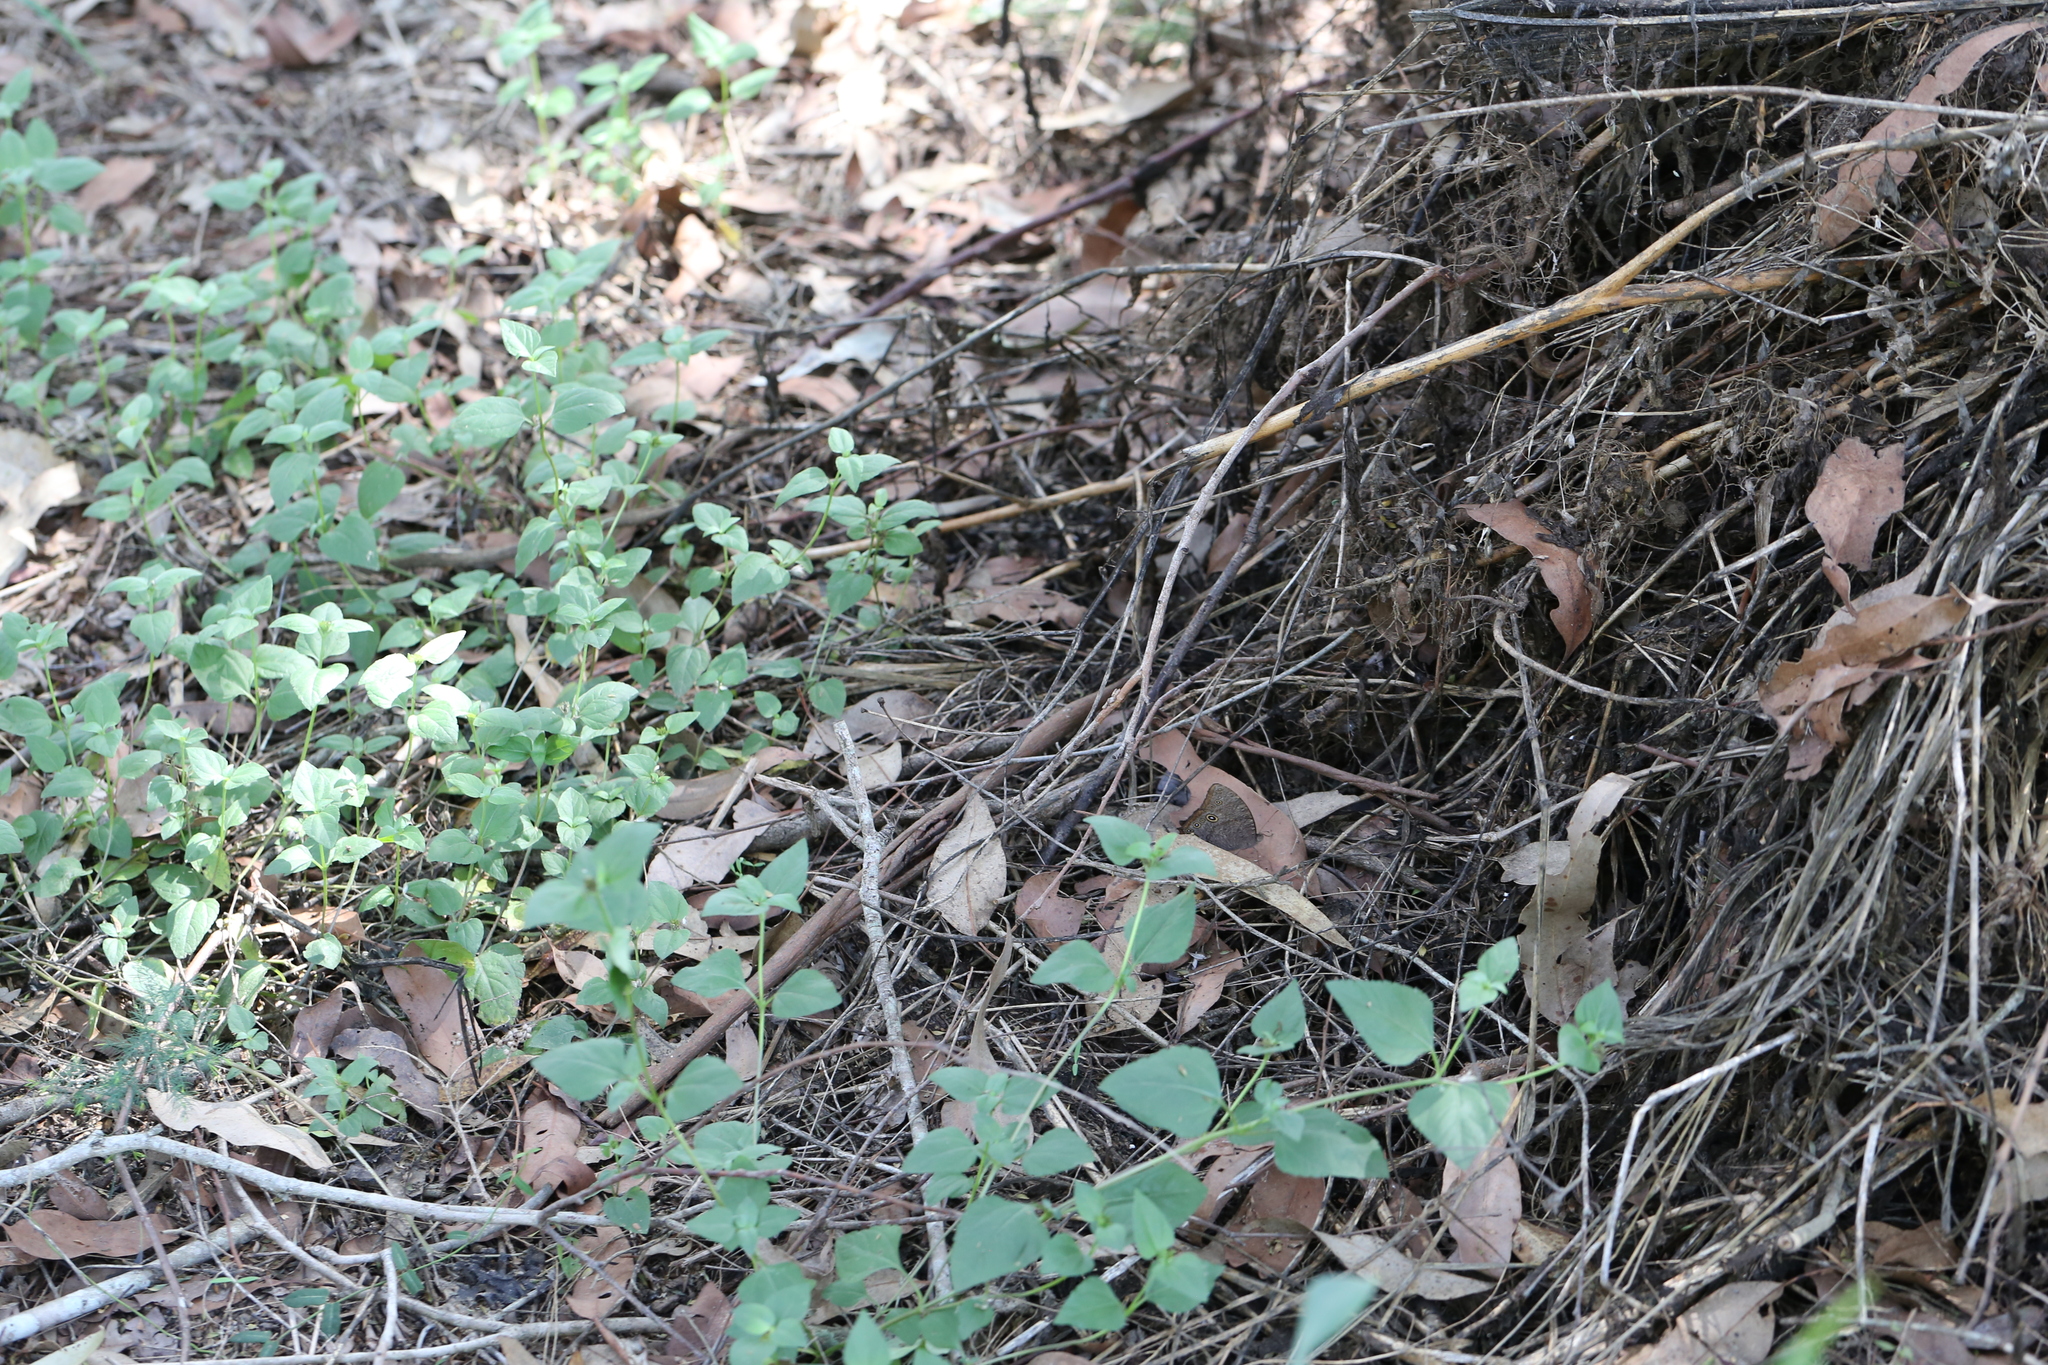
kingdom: Animalia
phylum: Arthropoda
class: Insecta
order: Lepidoptera
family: Nymphalidae
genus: Melanitis
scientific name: Melanitis leda
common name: Twilight brown
